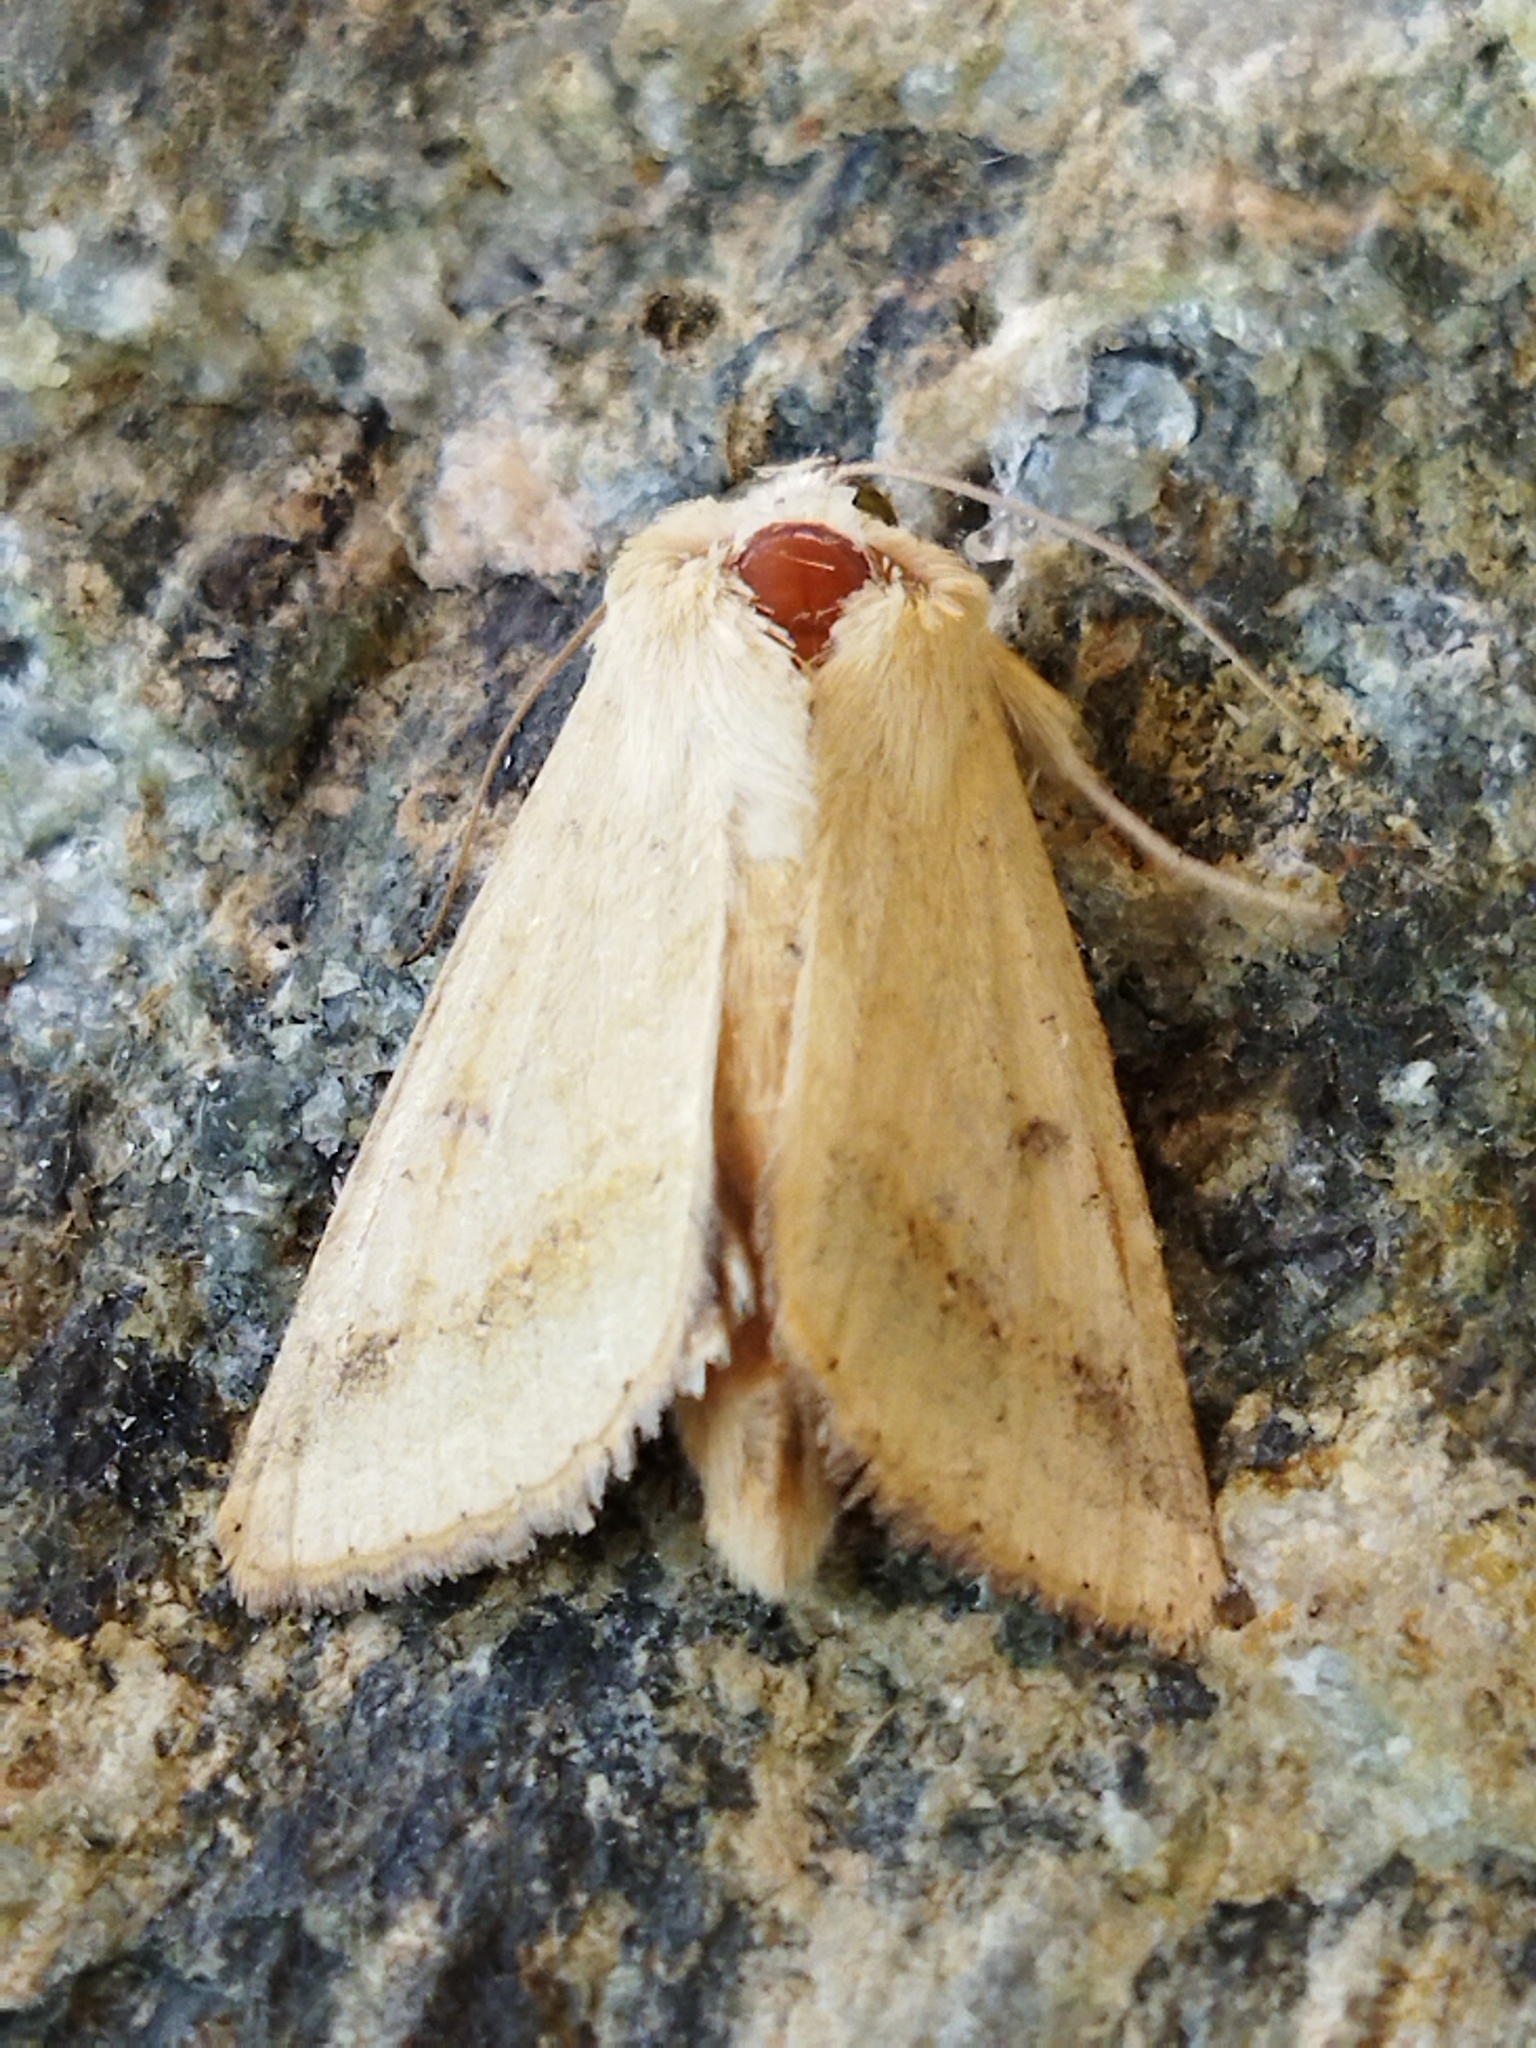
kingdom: Animalia
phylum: Arthropoda
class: Insecta
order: Lepidoptera
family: Noctuidae
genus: Helicoverpa
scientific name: Helicoverpa armigera
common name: Cotton bollworm
